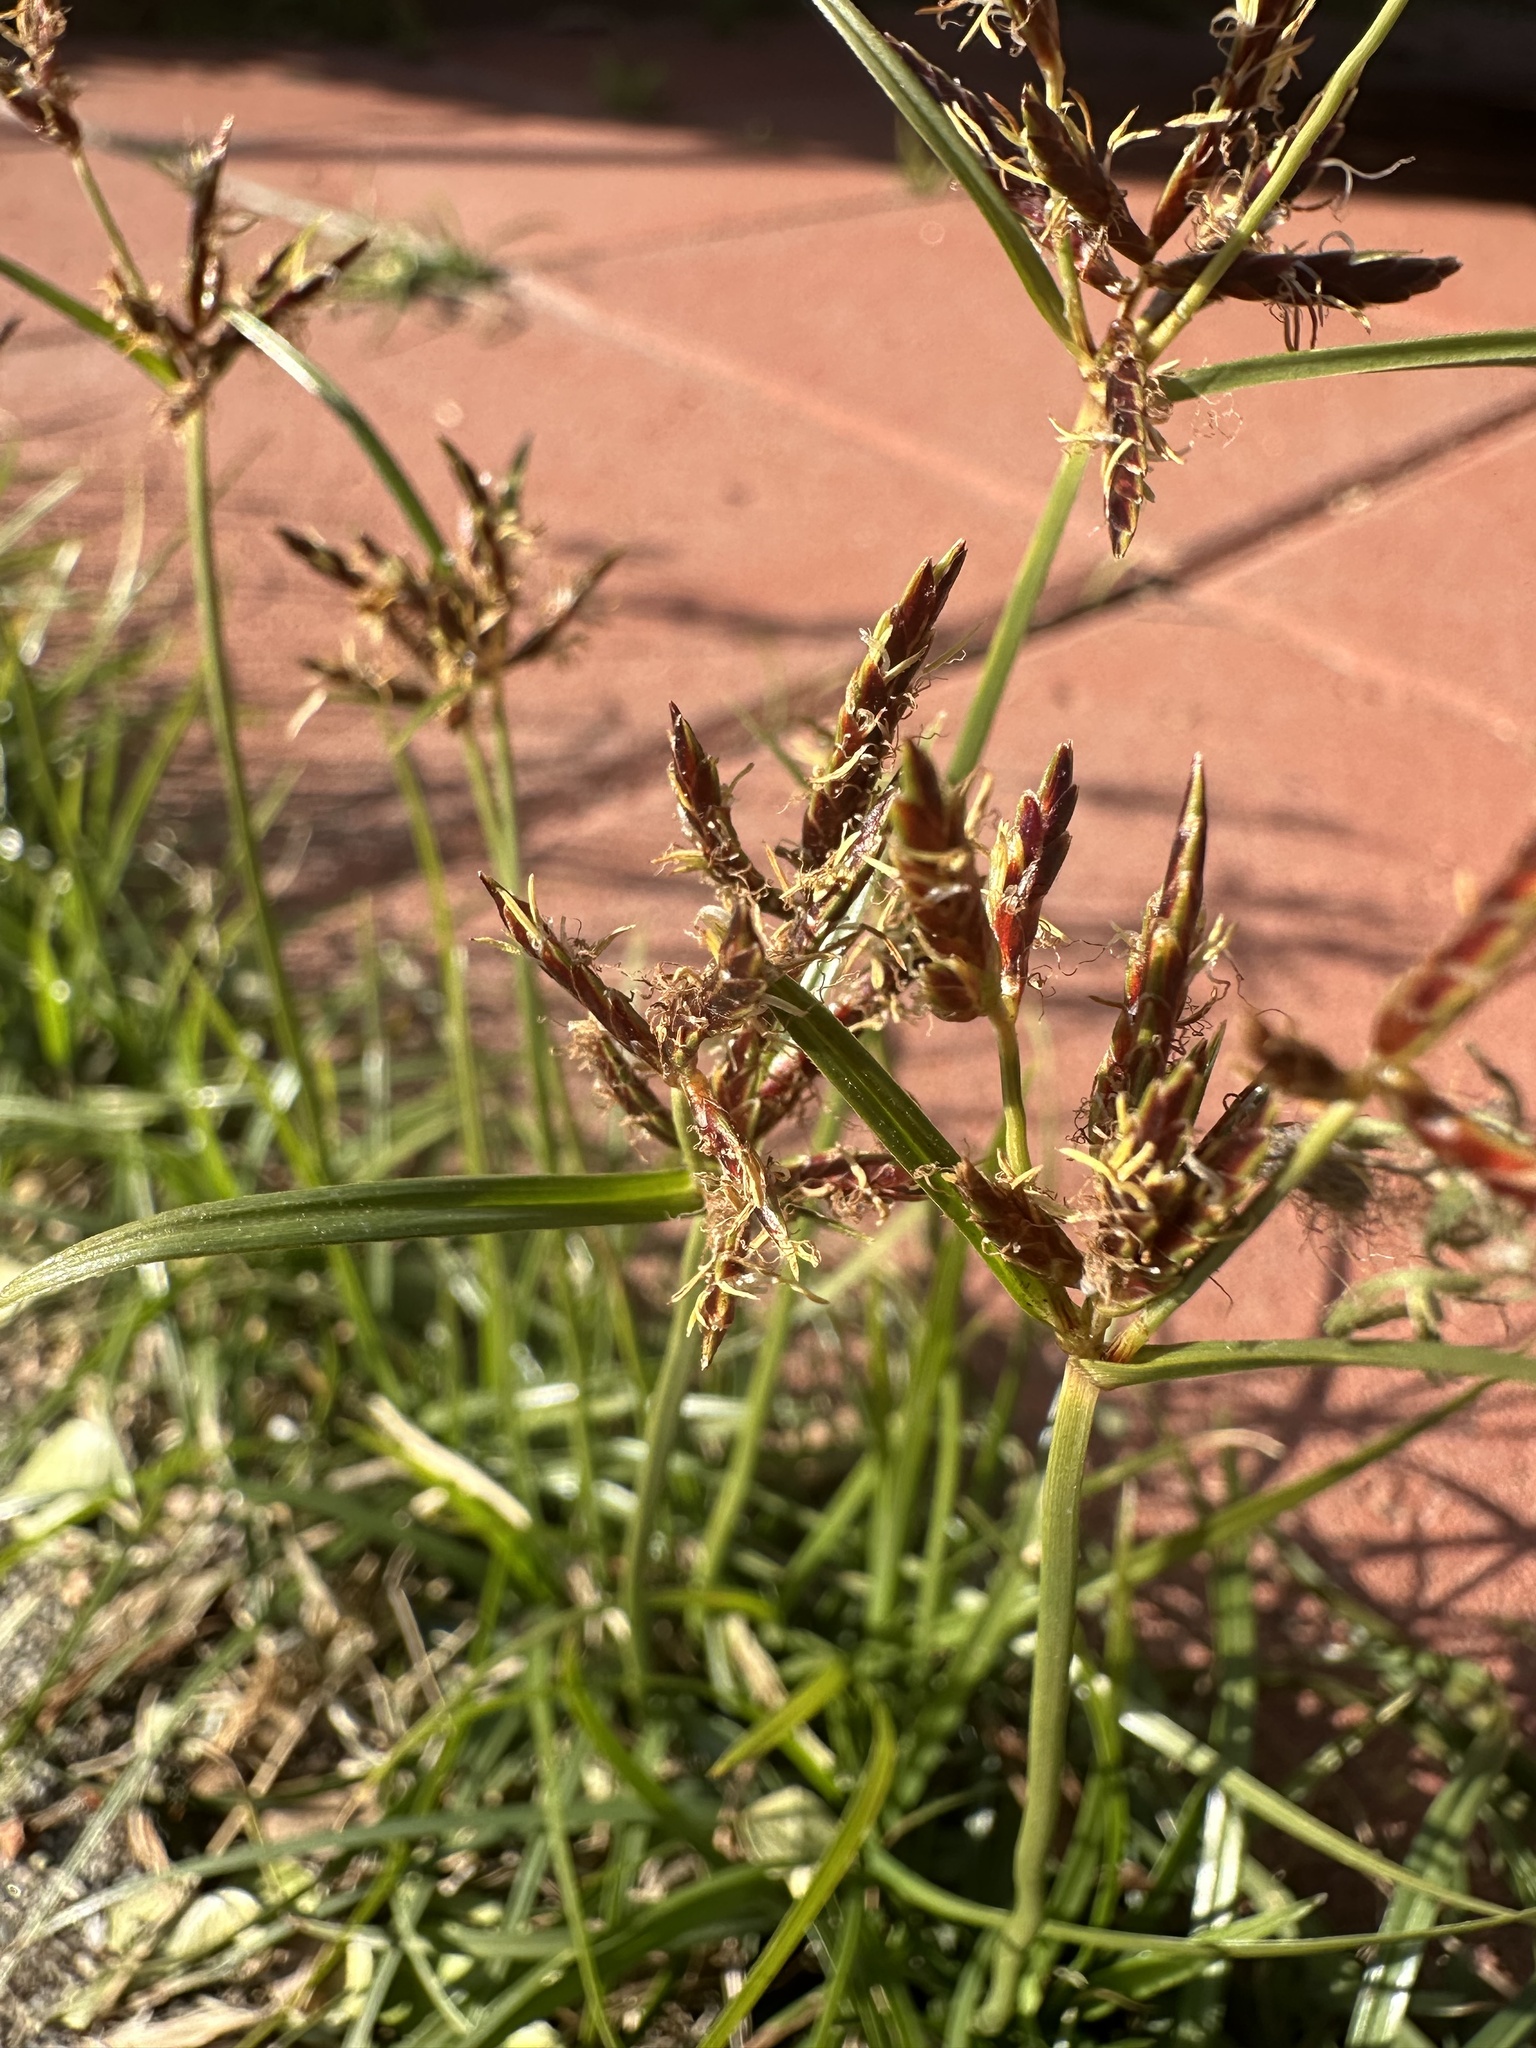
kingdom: Plantae
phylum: Tracheophyta
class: Liliopsida
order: Poales
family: Cyperaceae
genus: Cyperus
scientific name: Cyperus rotundus
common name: Nutgrass
